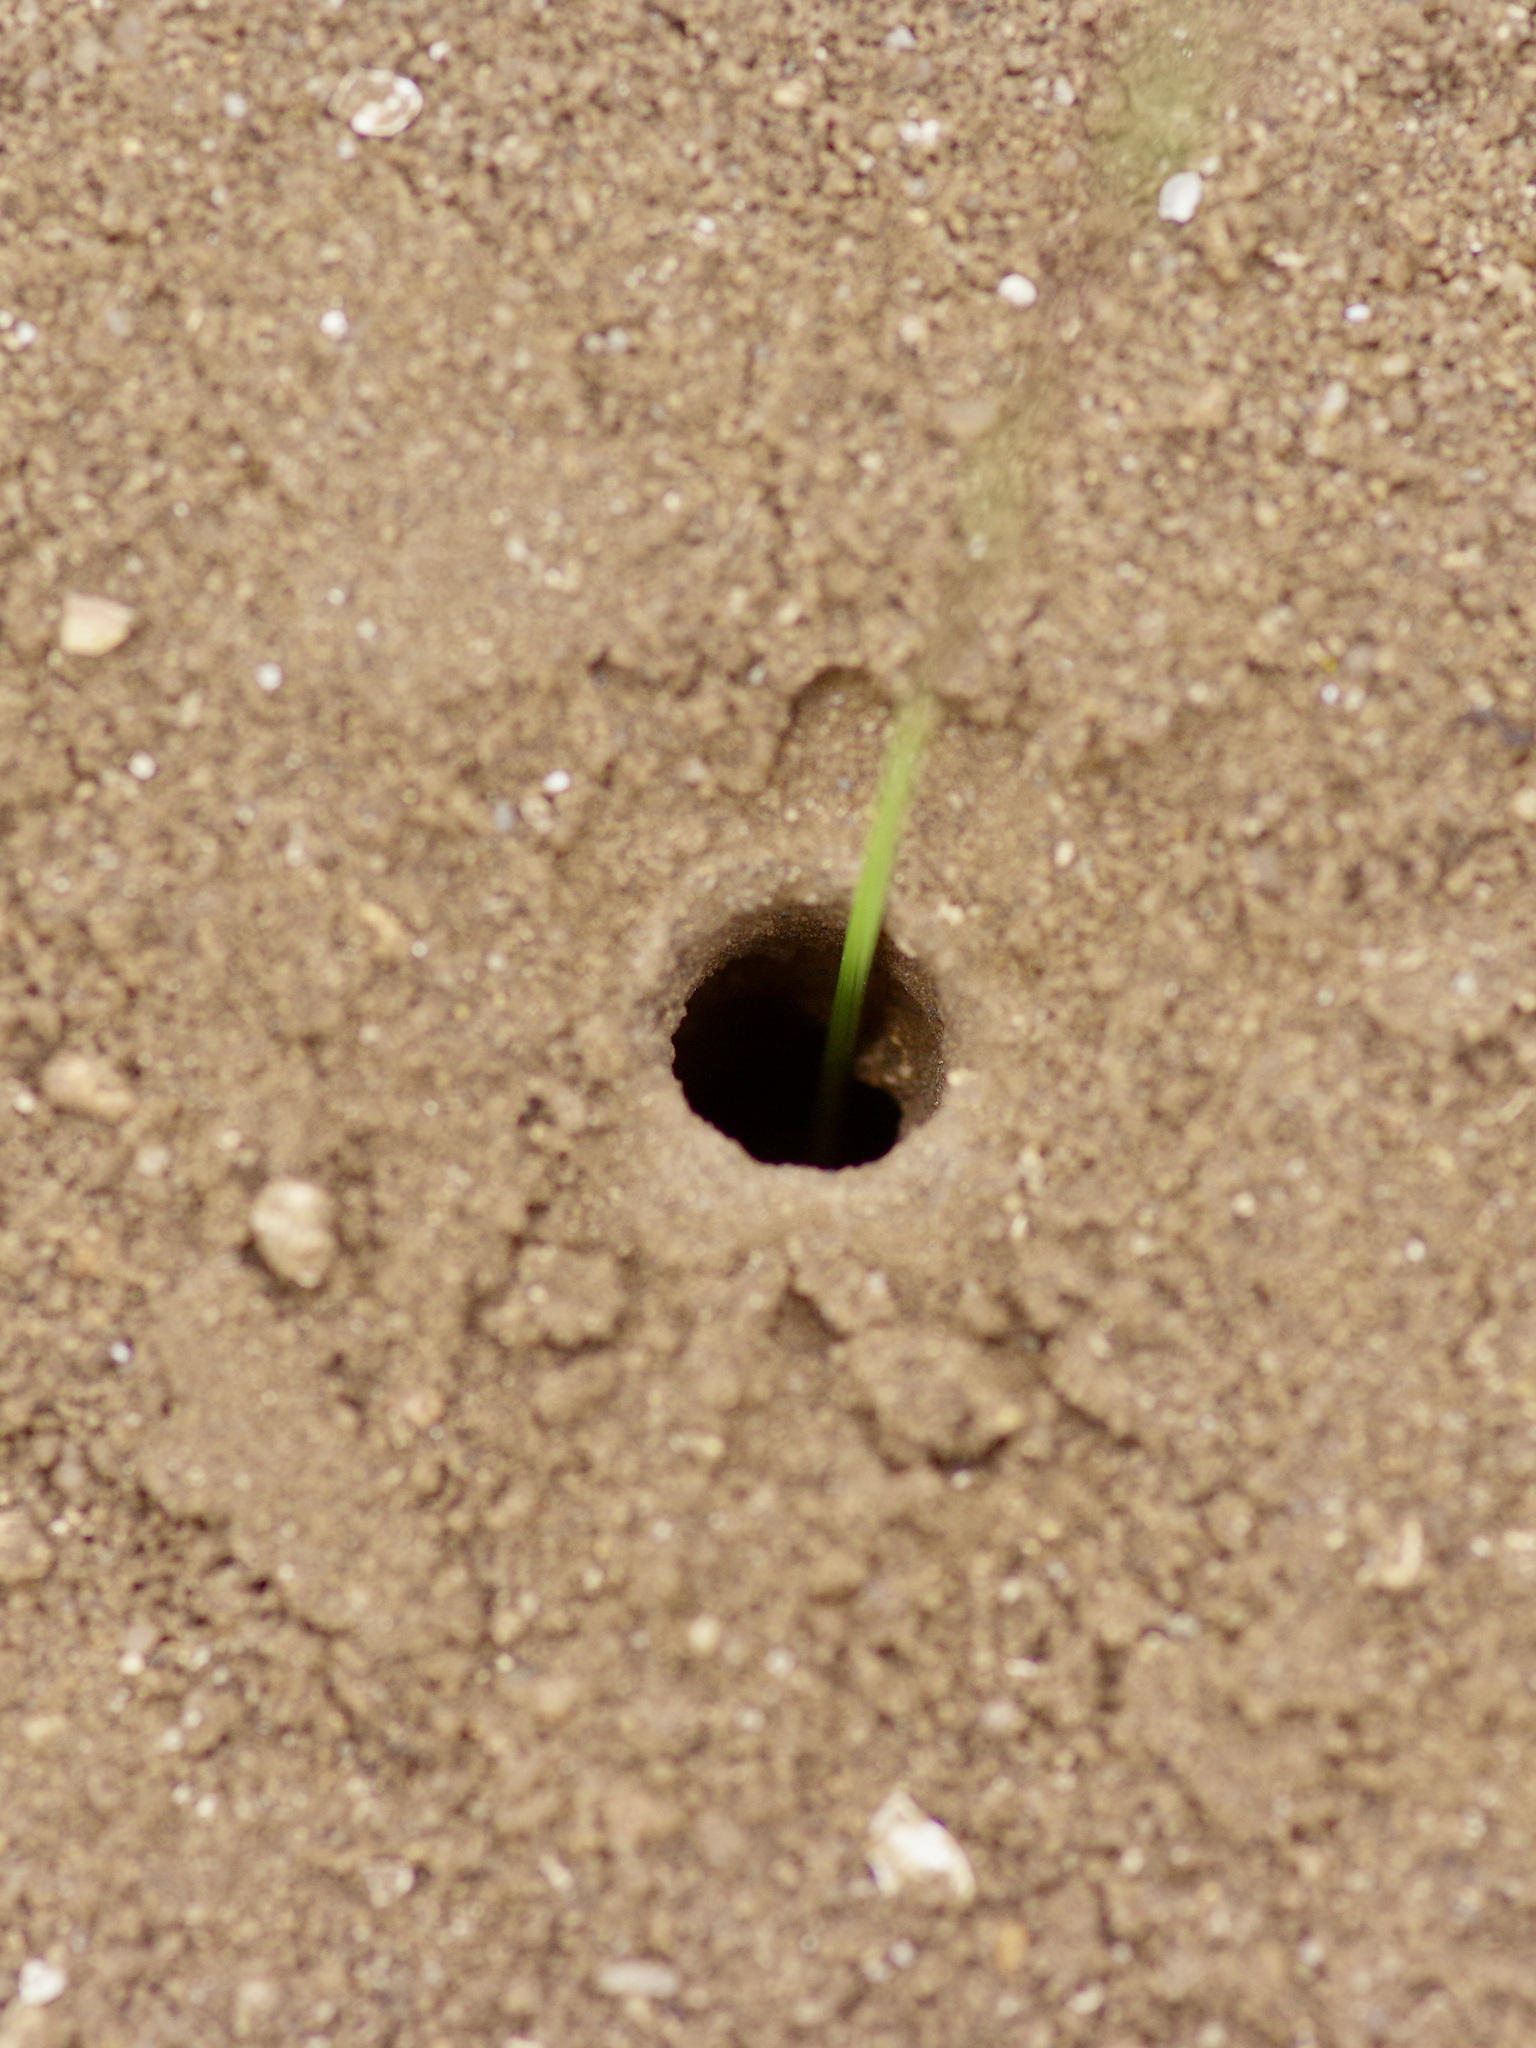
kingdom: Animalia
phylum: Arthropoda
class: Insecta
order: Hymenoptera
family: Mutillidae
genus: Dasymutilla
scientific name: Dasymutilla
